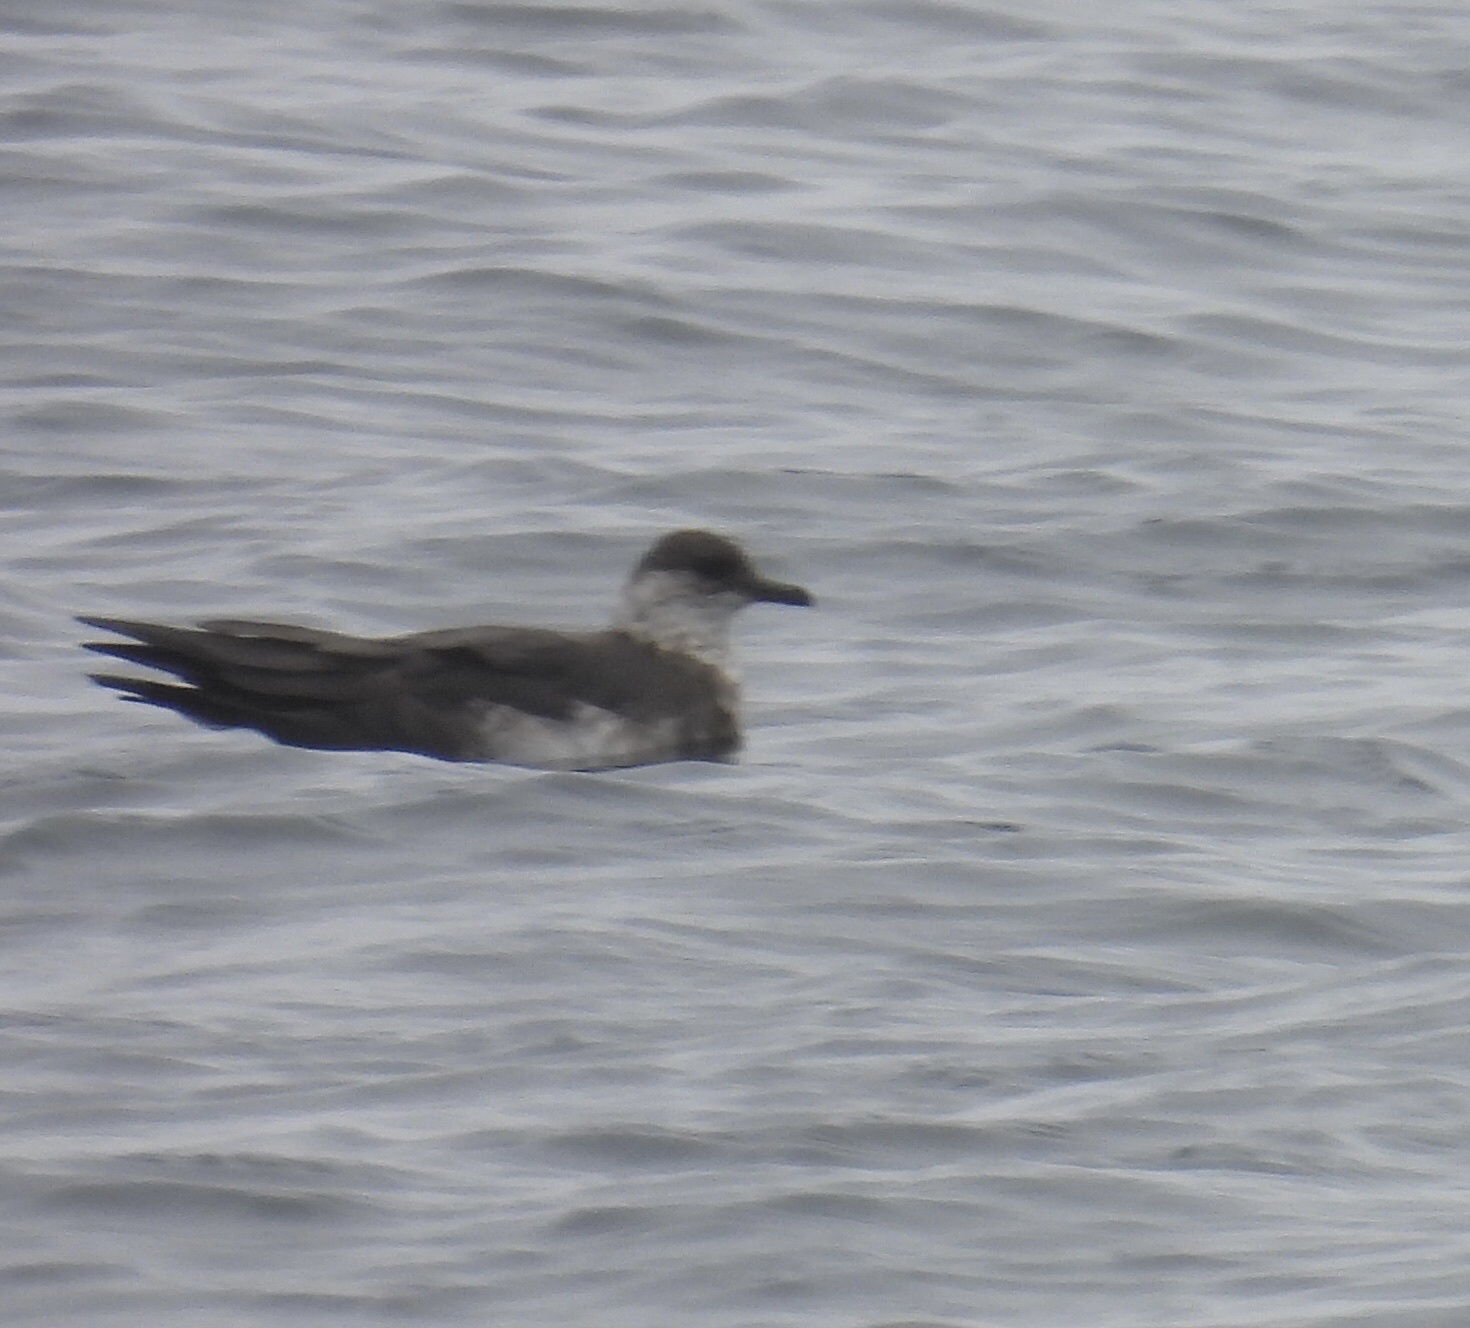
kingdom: Animalia
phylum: Chordata
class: Aves
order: Charadriiformes
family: Stercorariidae
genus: Stercorarius
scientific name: Stercorarius parasiticus
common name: Parasitic jaeger
